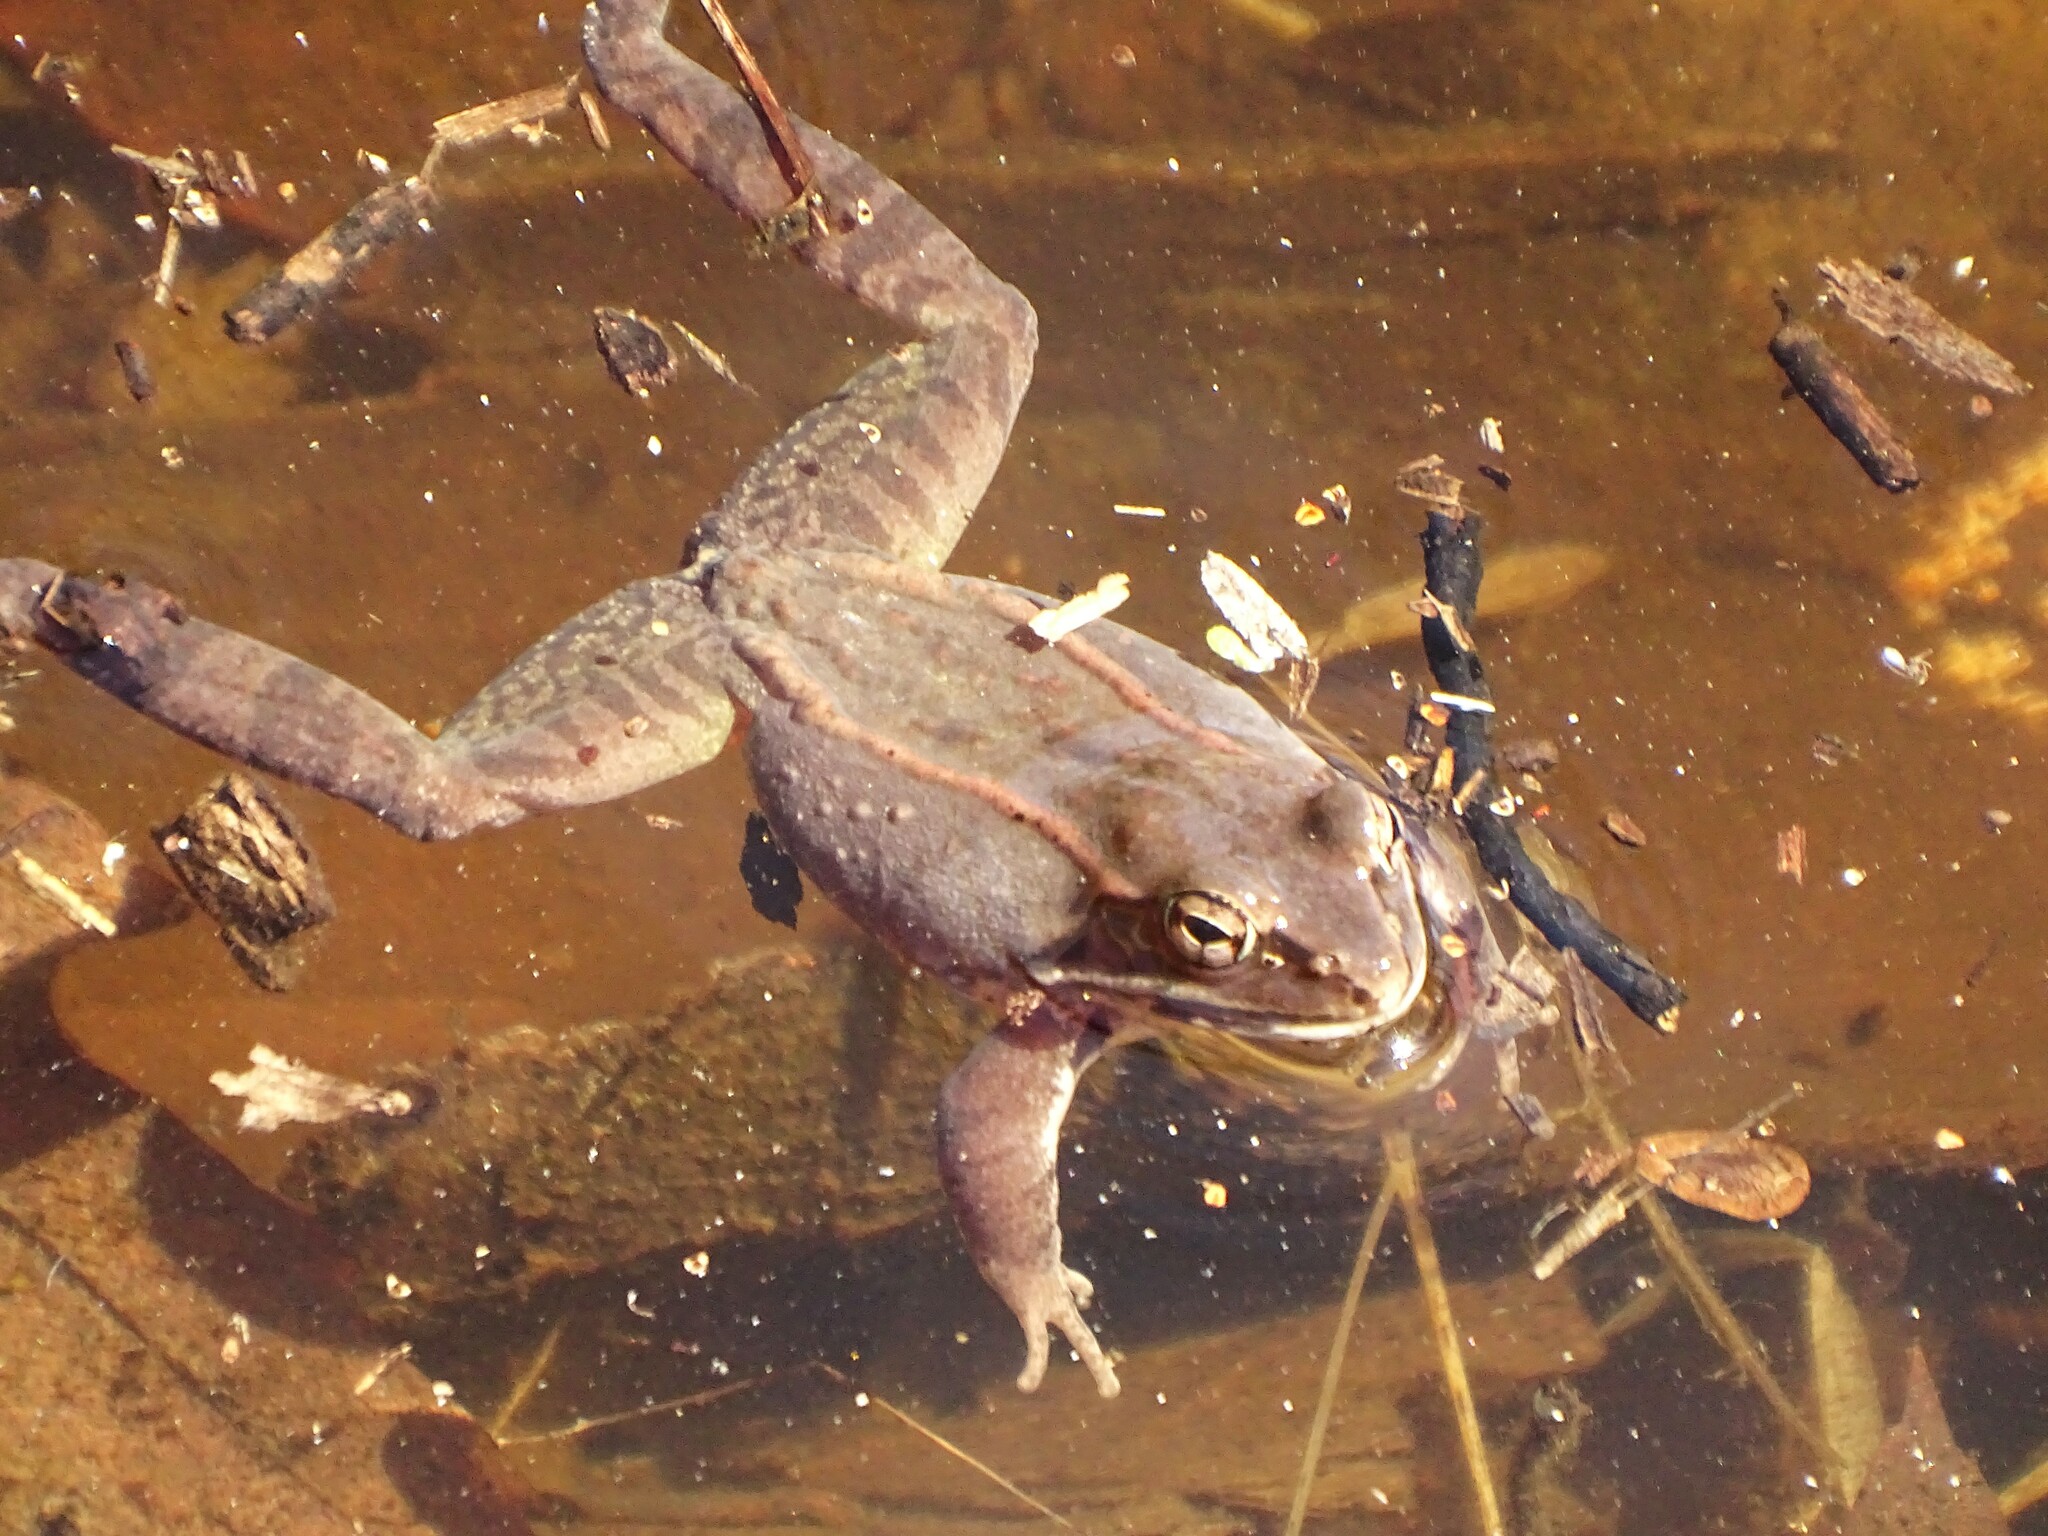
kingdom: Animalia
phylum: Chordata
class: Amphibia
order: Anura
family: Ranidae
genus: Lithobates
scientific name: Lithobates sylvaticus
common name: Wood frog
